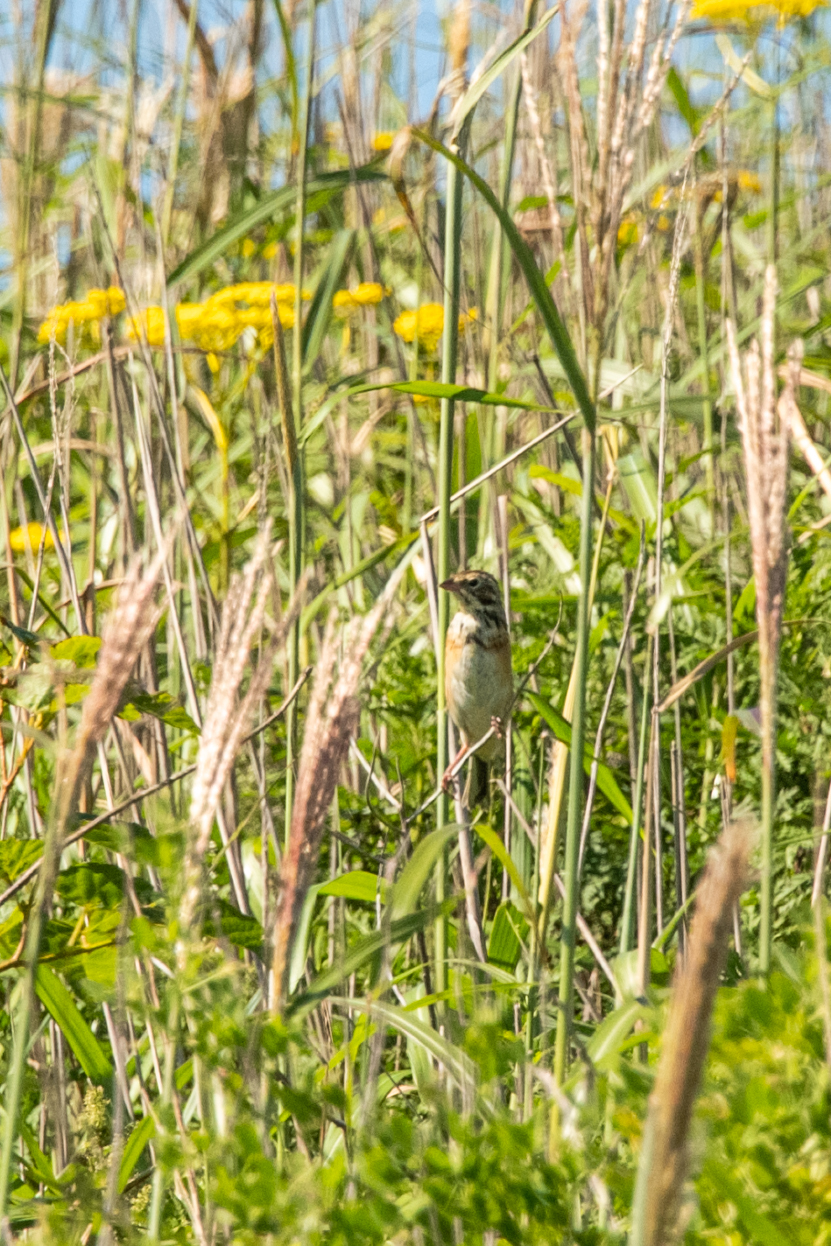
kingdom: Animalia
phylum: Chordata
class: Aves
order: Passeriformes
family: Emberizidae
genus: Emberiza
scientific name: Emberiza fucata
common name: Chestnut-eared bunting
